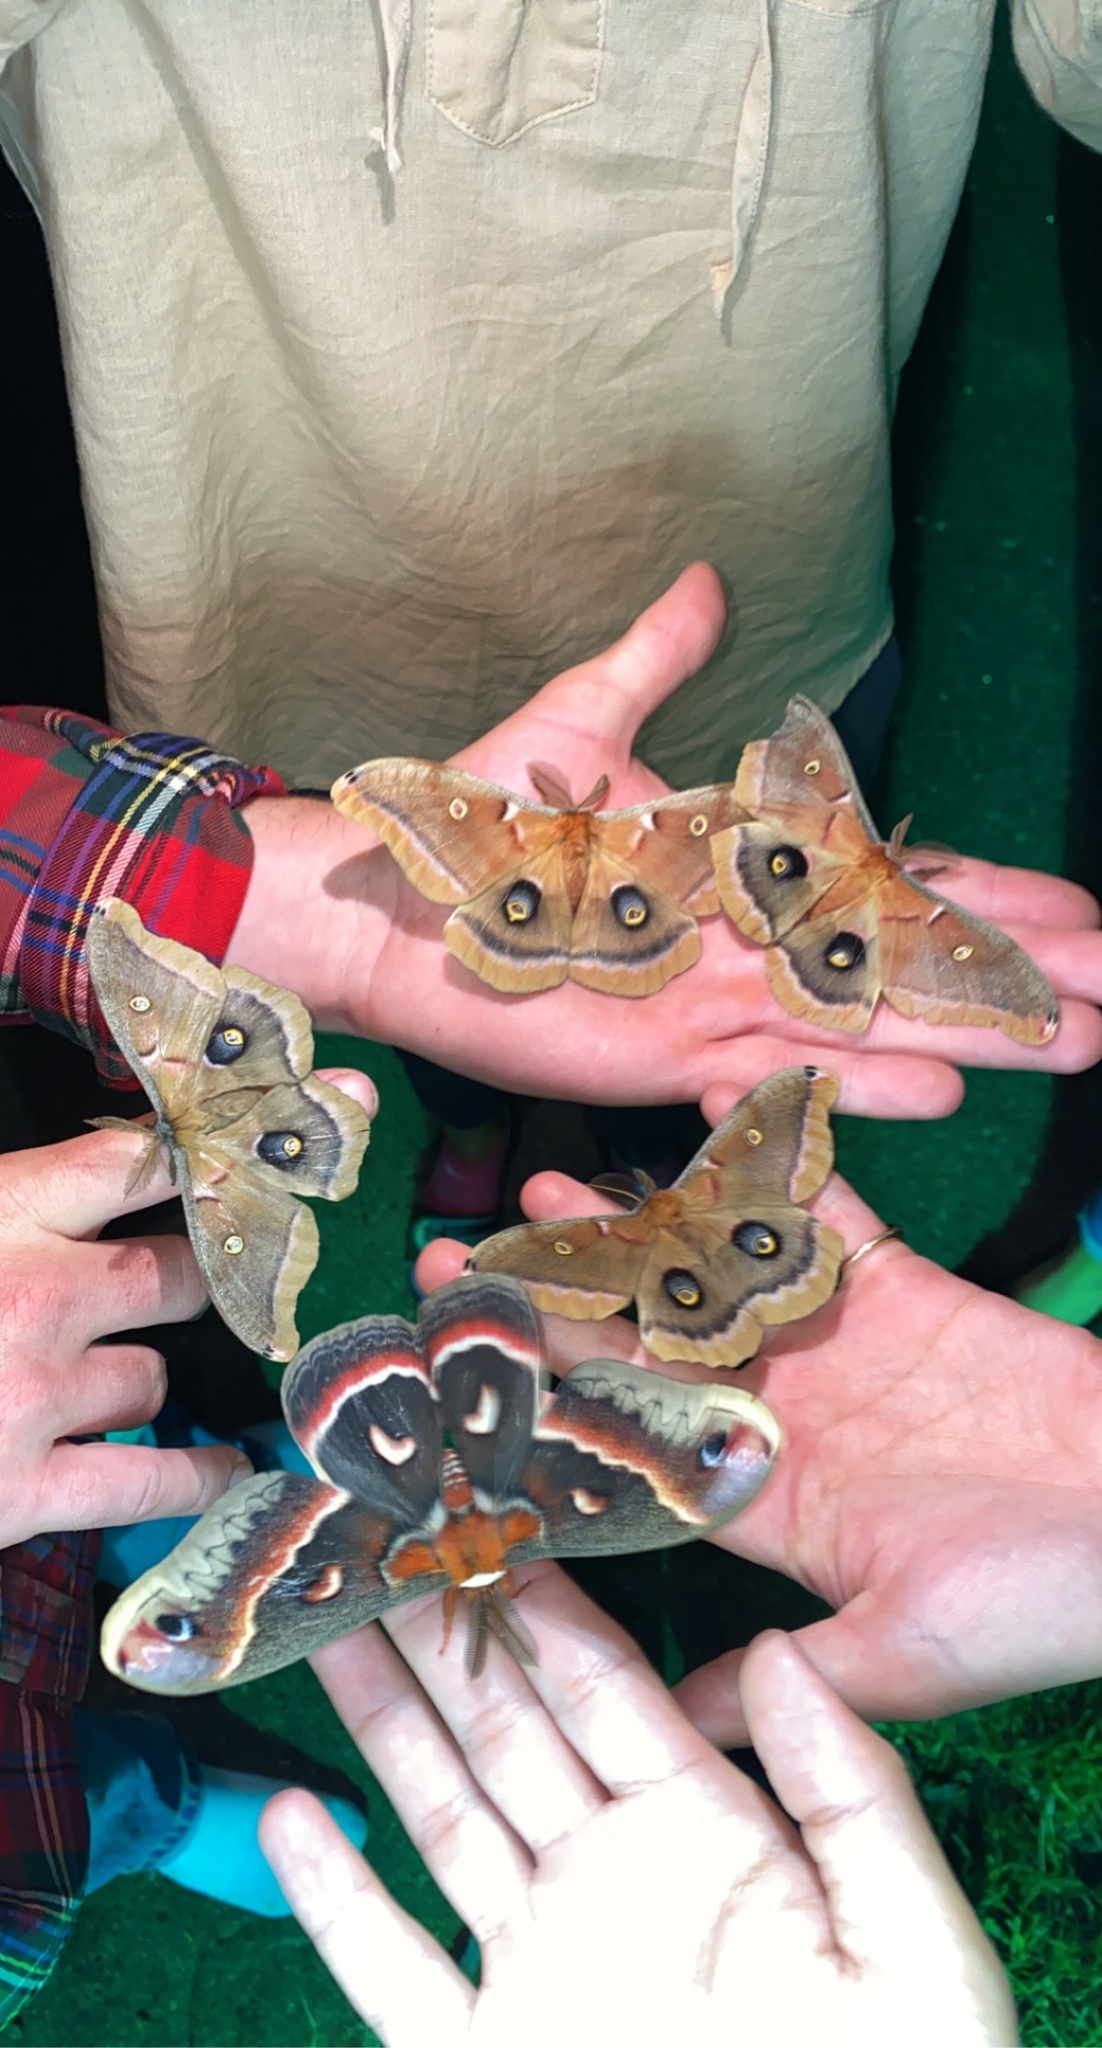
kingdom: Animalia
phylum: Arthropoda
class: Insecta
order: Lepidoptera
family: Saturniidae
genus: Antheraea
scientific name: Antheraea polyphemus
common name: Polyphemus moth
